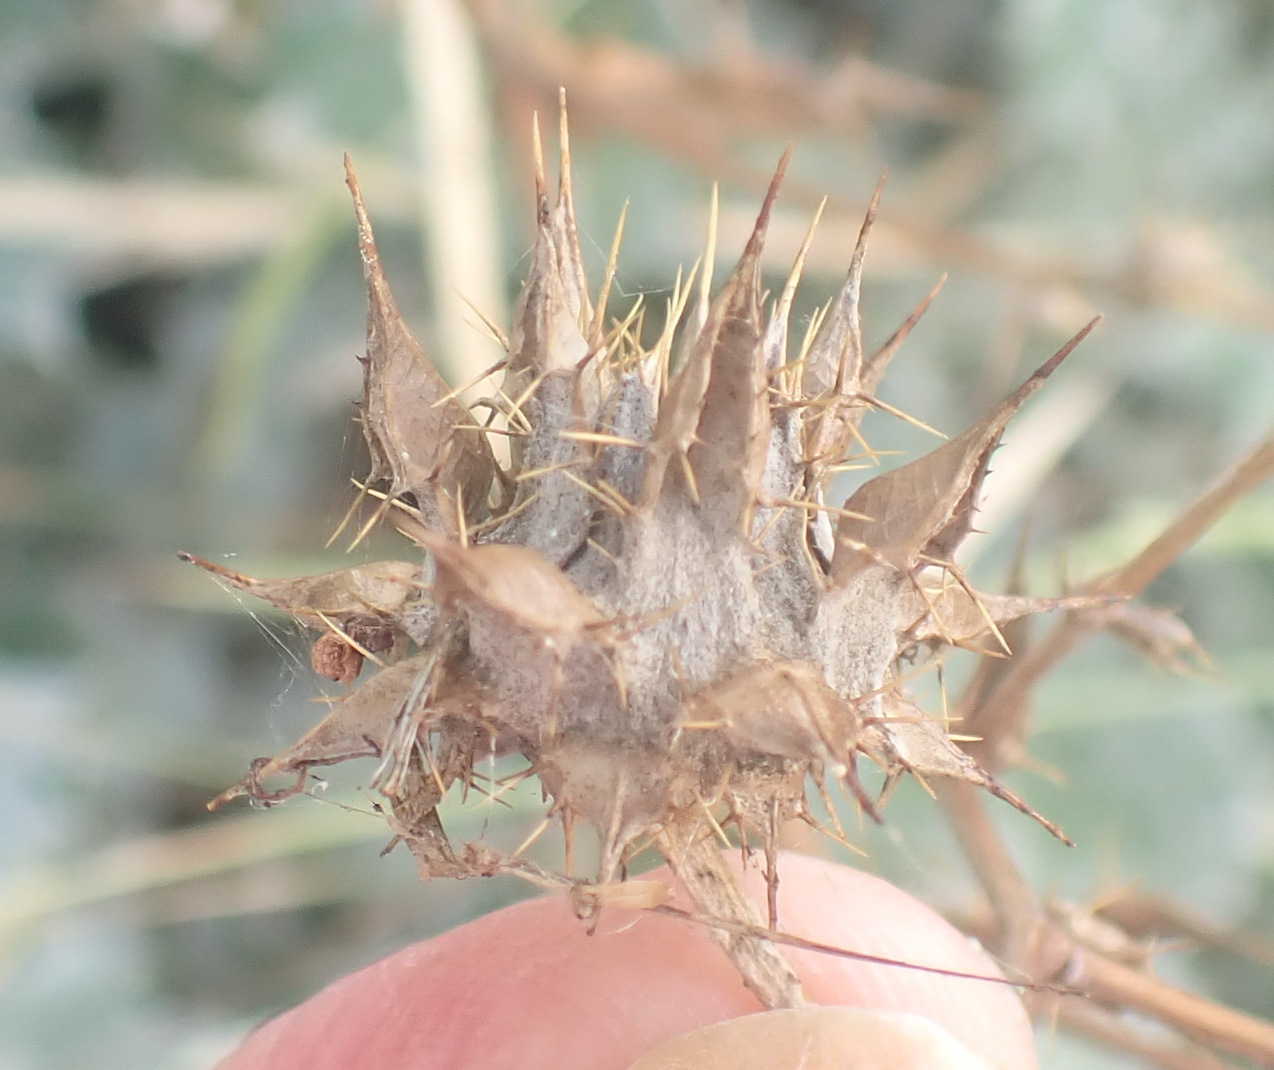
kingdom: Plantae
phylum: Tracheophyta
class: Magnoliopsida
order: Asterales
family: Asteraceae
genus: Berkheya
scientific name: Berkheya heterophylla
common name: Prickly gousblom
